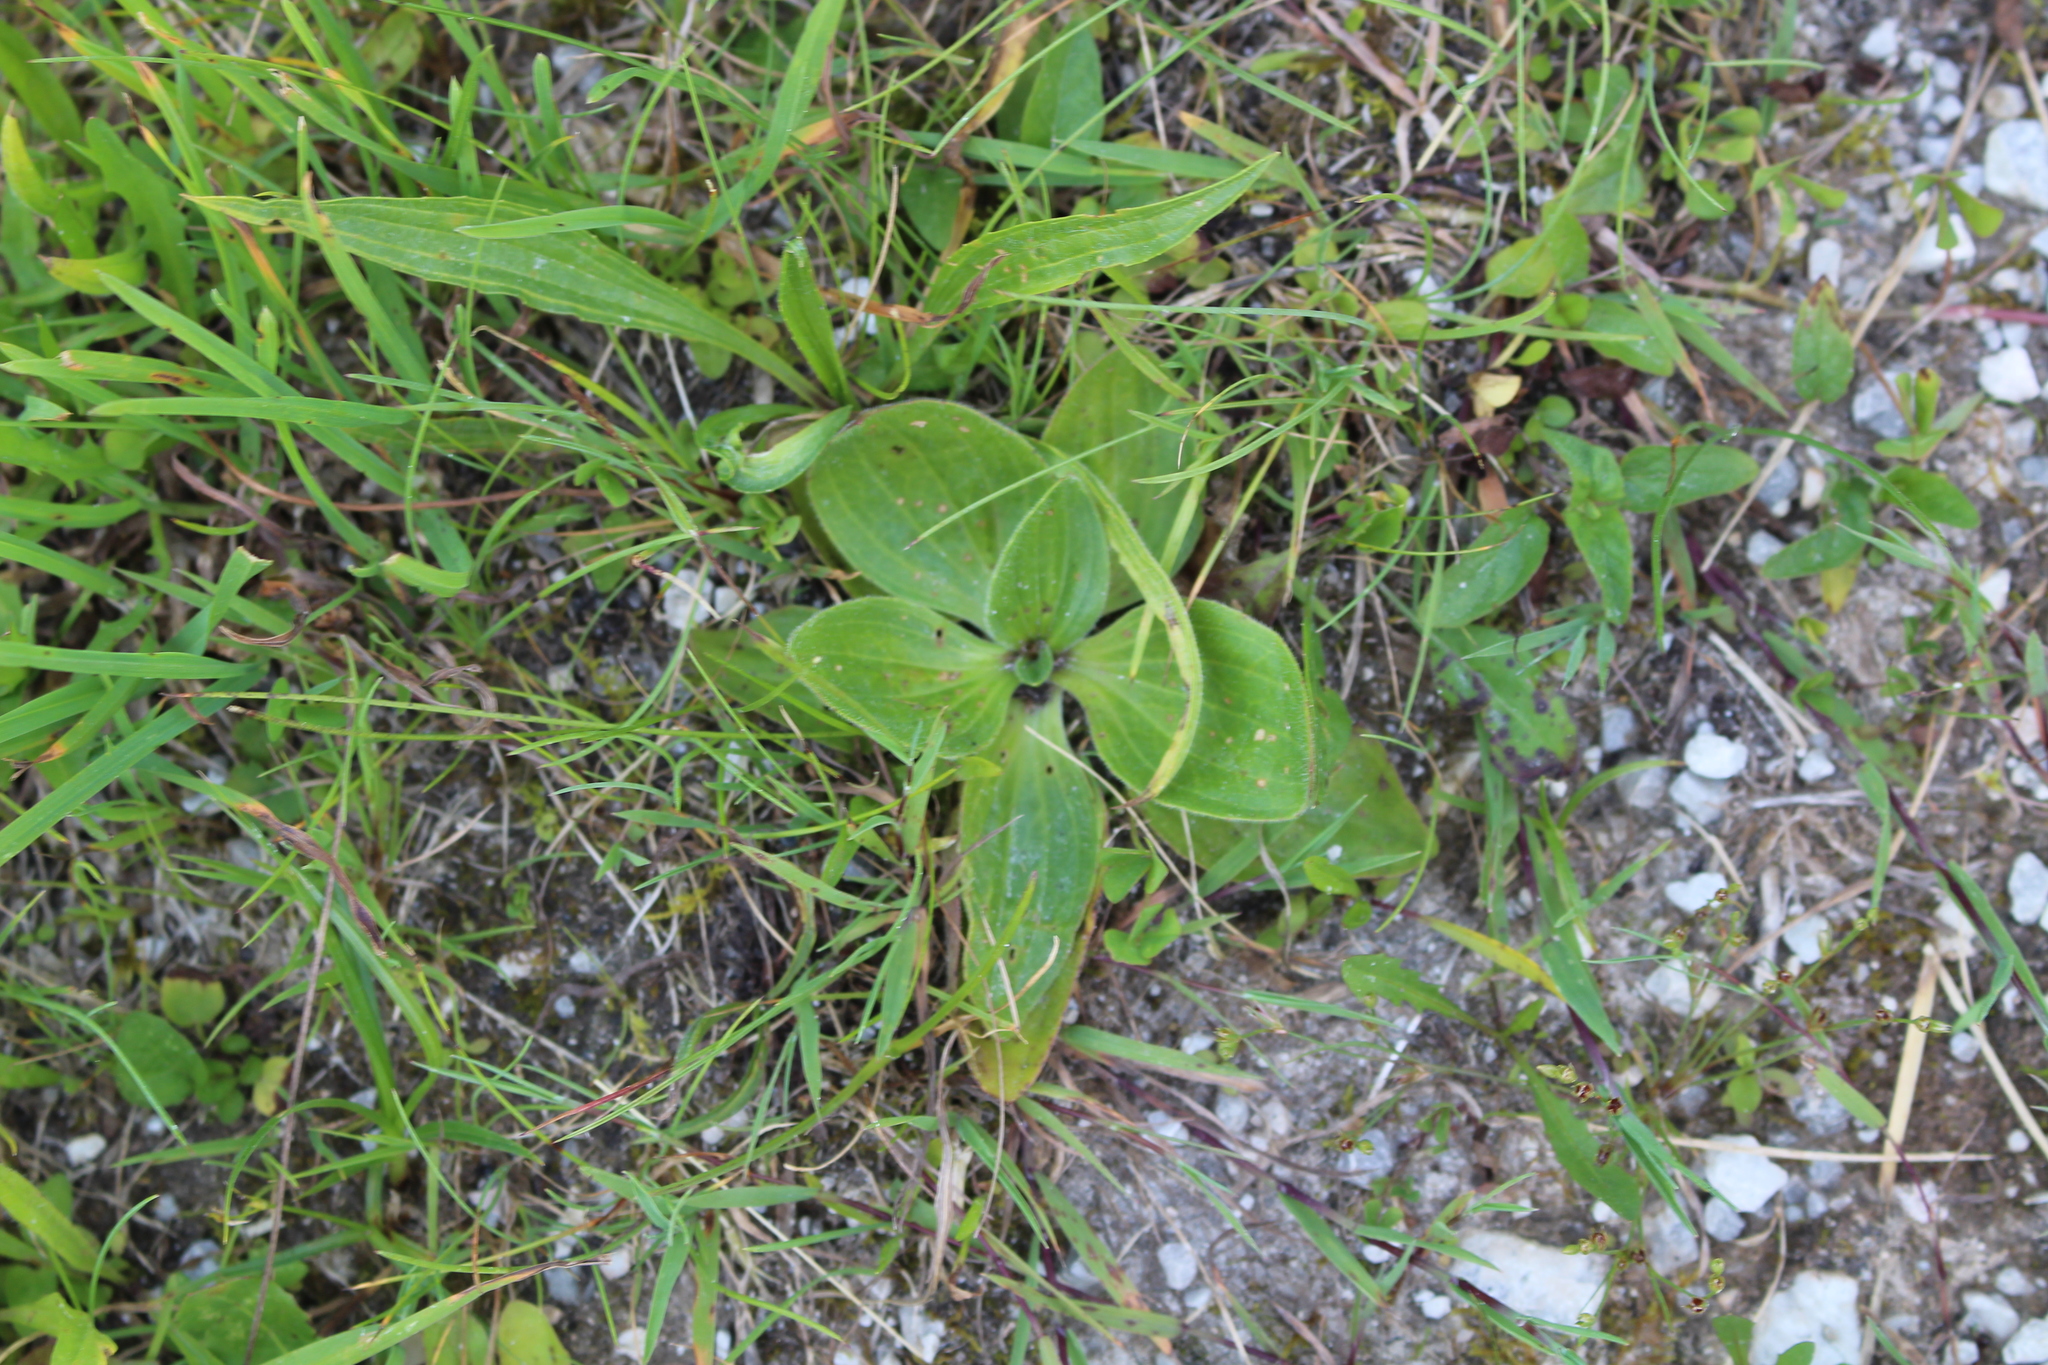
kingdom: Plantae
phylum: Tracheophyta
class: Magnoliopsida
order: Lamiales
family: Plantaginaceae
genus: Plantago
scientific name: Plantago media
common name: Hoary plantain
